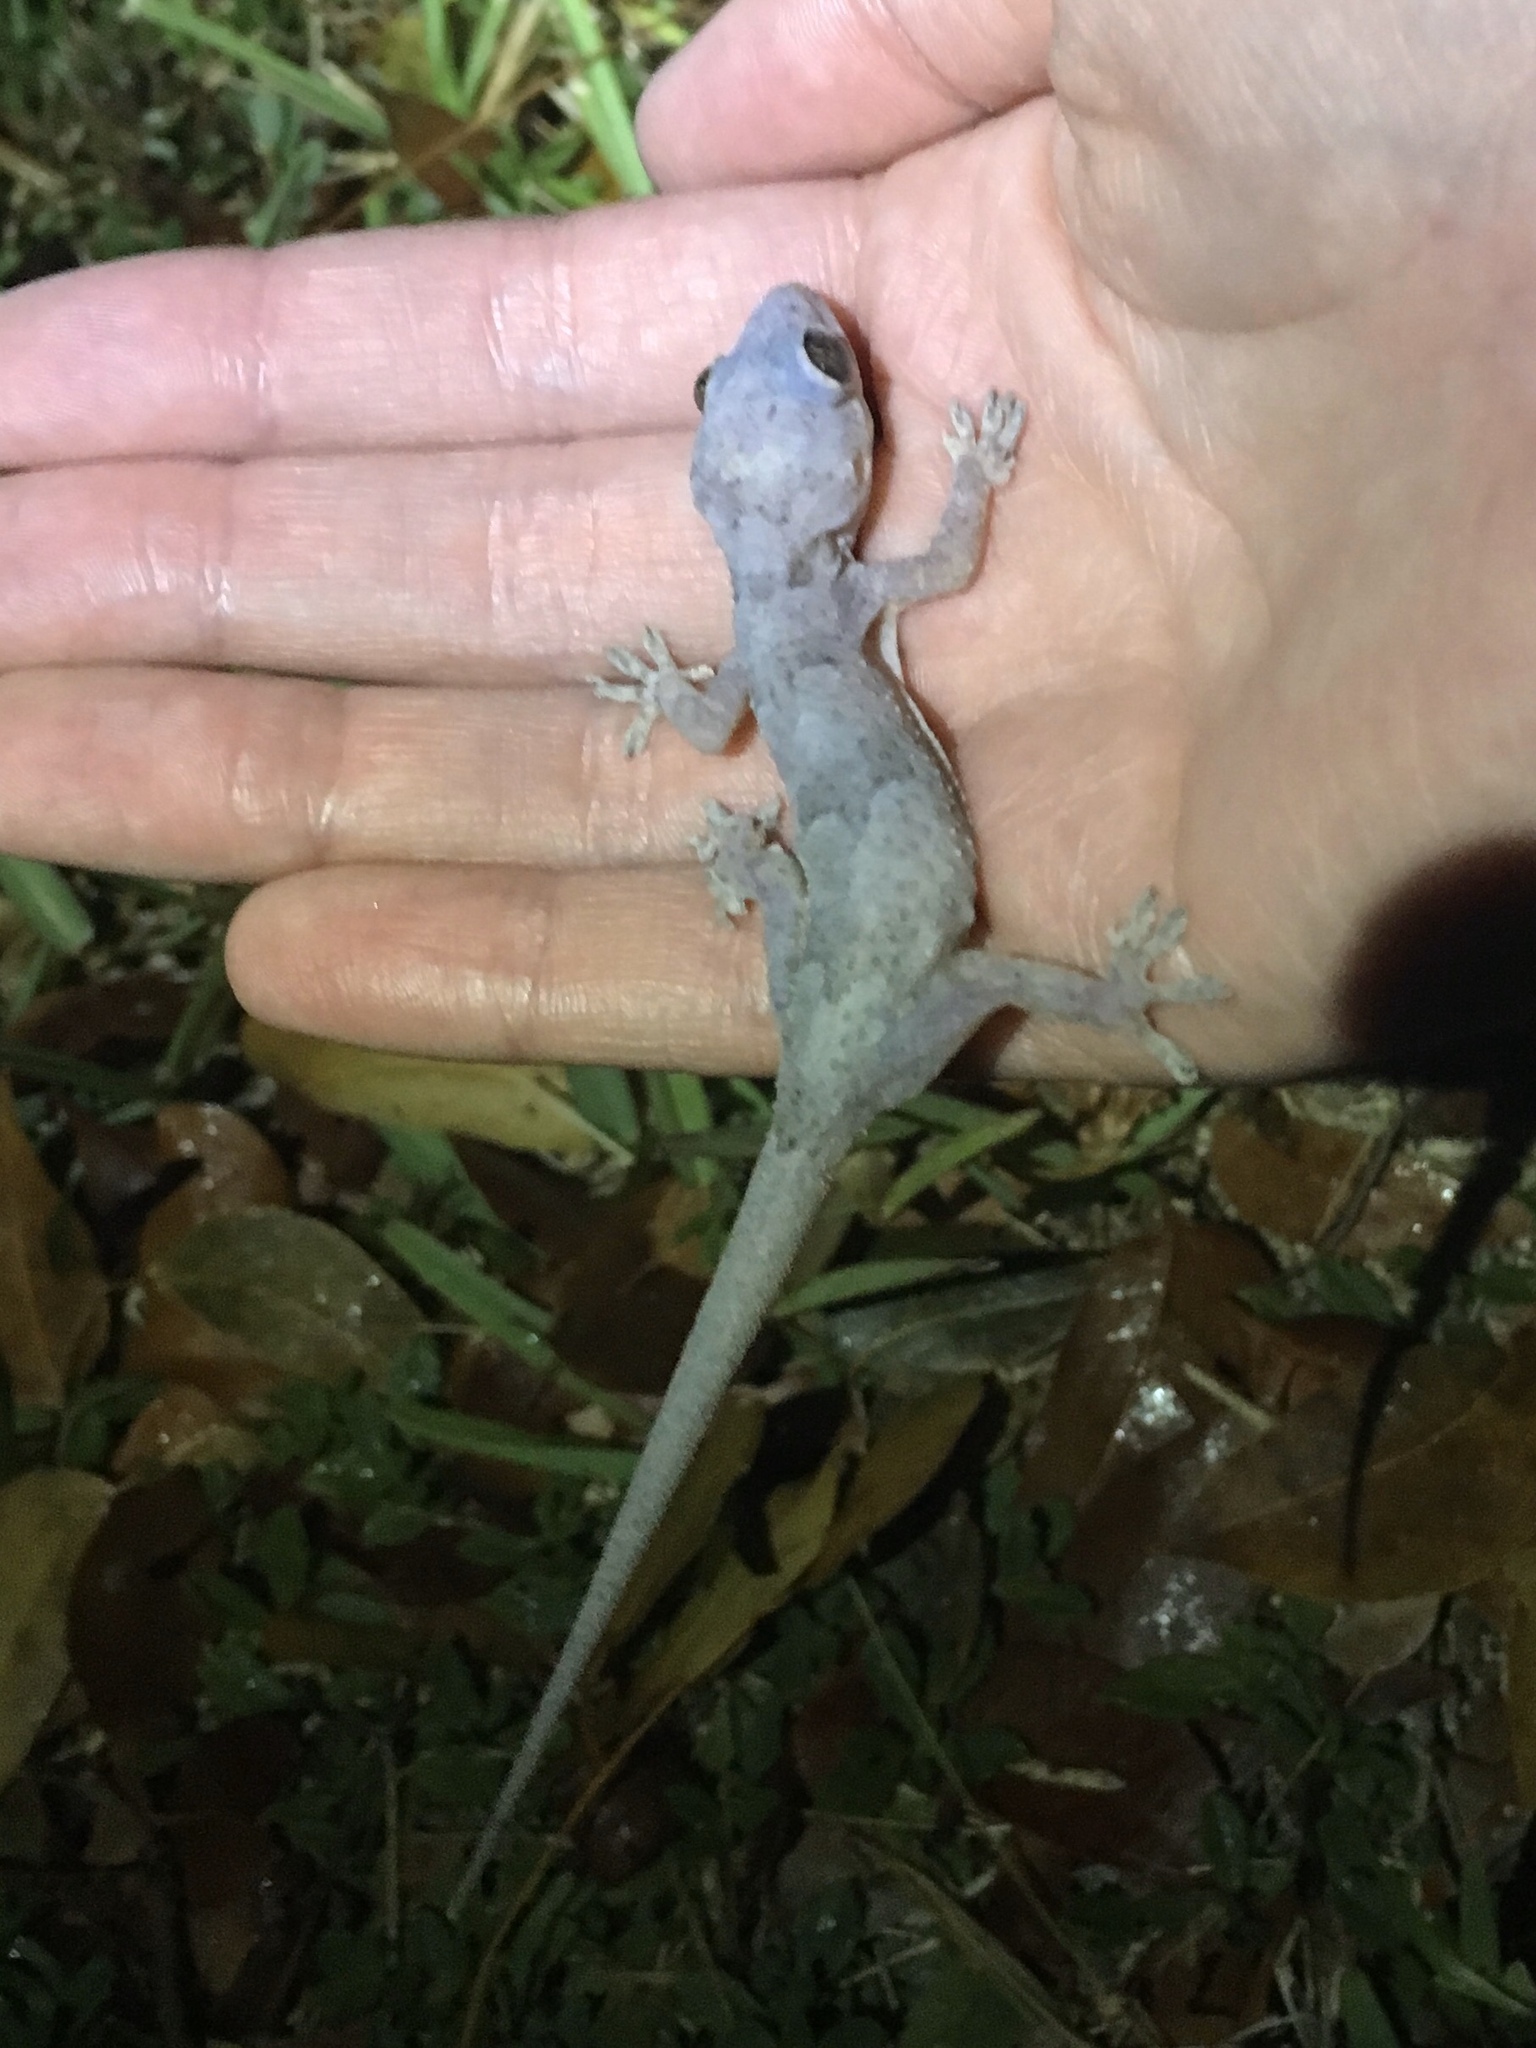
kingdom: Animalia
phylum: Chordata
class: Squamata
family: Gekkonidae
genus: Hemidactylus
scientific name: Hemidactylus mabouia
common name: House gecko
